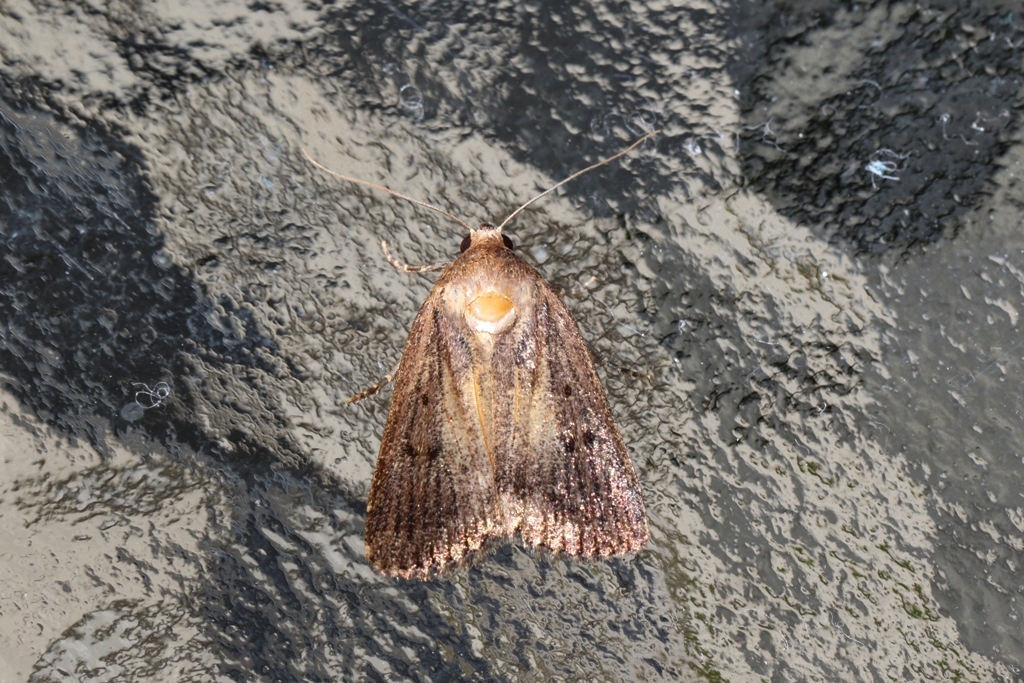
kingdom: Animalia
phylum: Arthropoda
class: Insecta
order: Lepidoptera
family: Noctuidae
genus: Amphipyra
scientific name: Amphipyra tragopoginis
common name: Mouse moth
